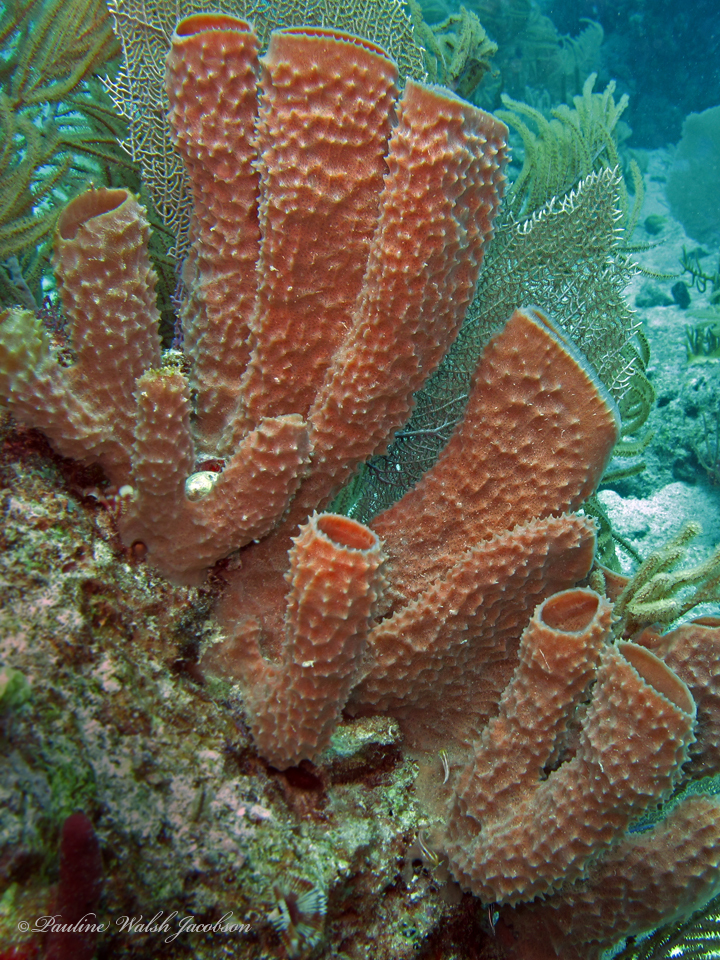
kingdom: Animalia
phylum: Porifera
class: Demospongiae
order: Haplosclerida
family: Callyspongiidae
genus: Callyspongia
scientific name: Callyspongia aculeata
